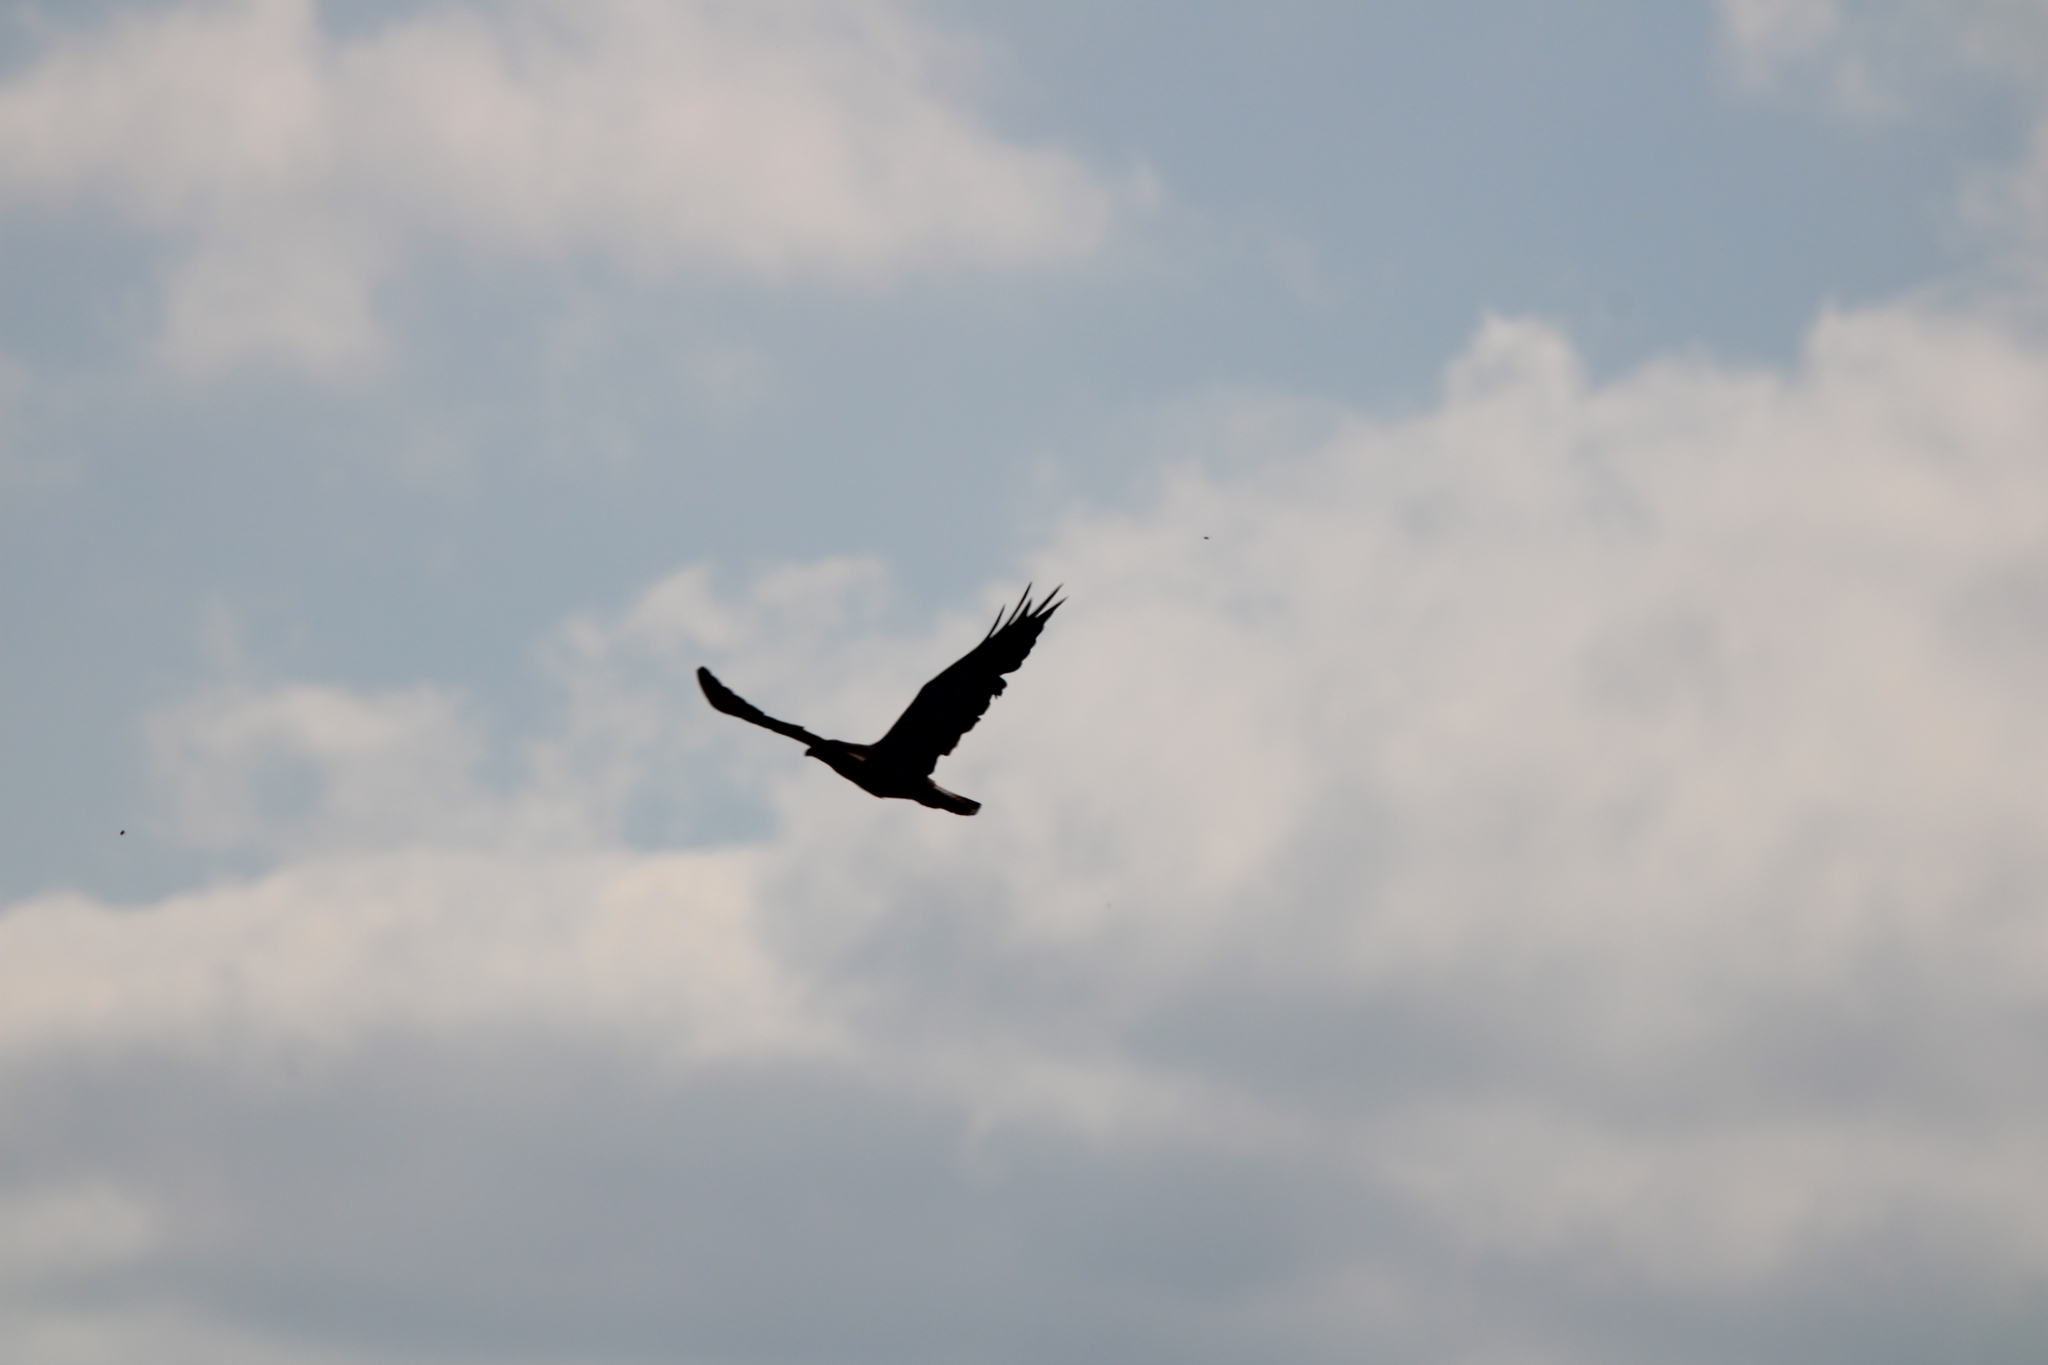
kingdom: Animalia
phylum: Chordata
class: Aves
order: Accipitriformes
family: Accipitridae
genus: Buteo
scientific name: Buteo buteo
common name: Common buzzard
